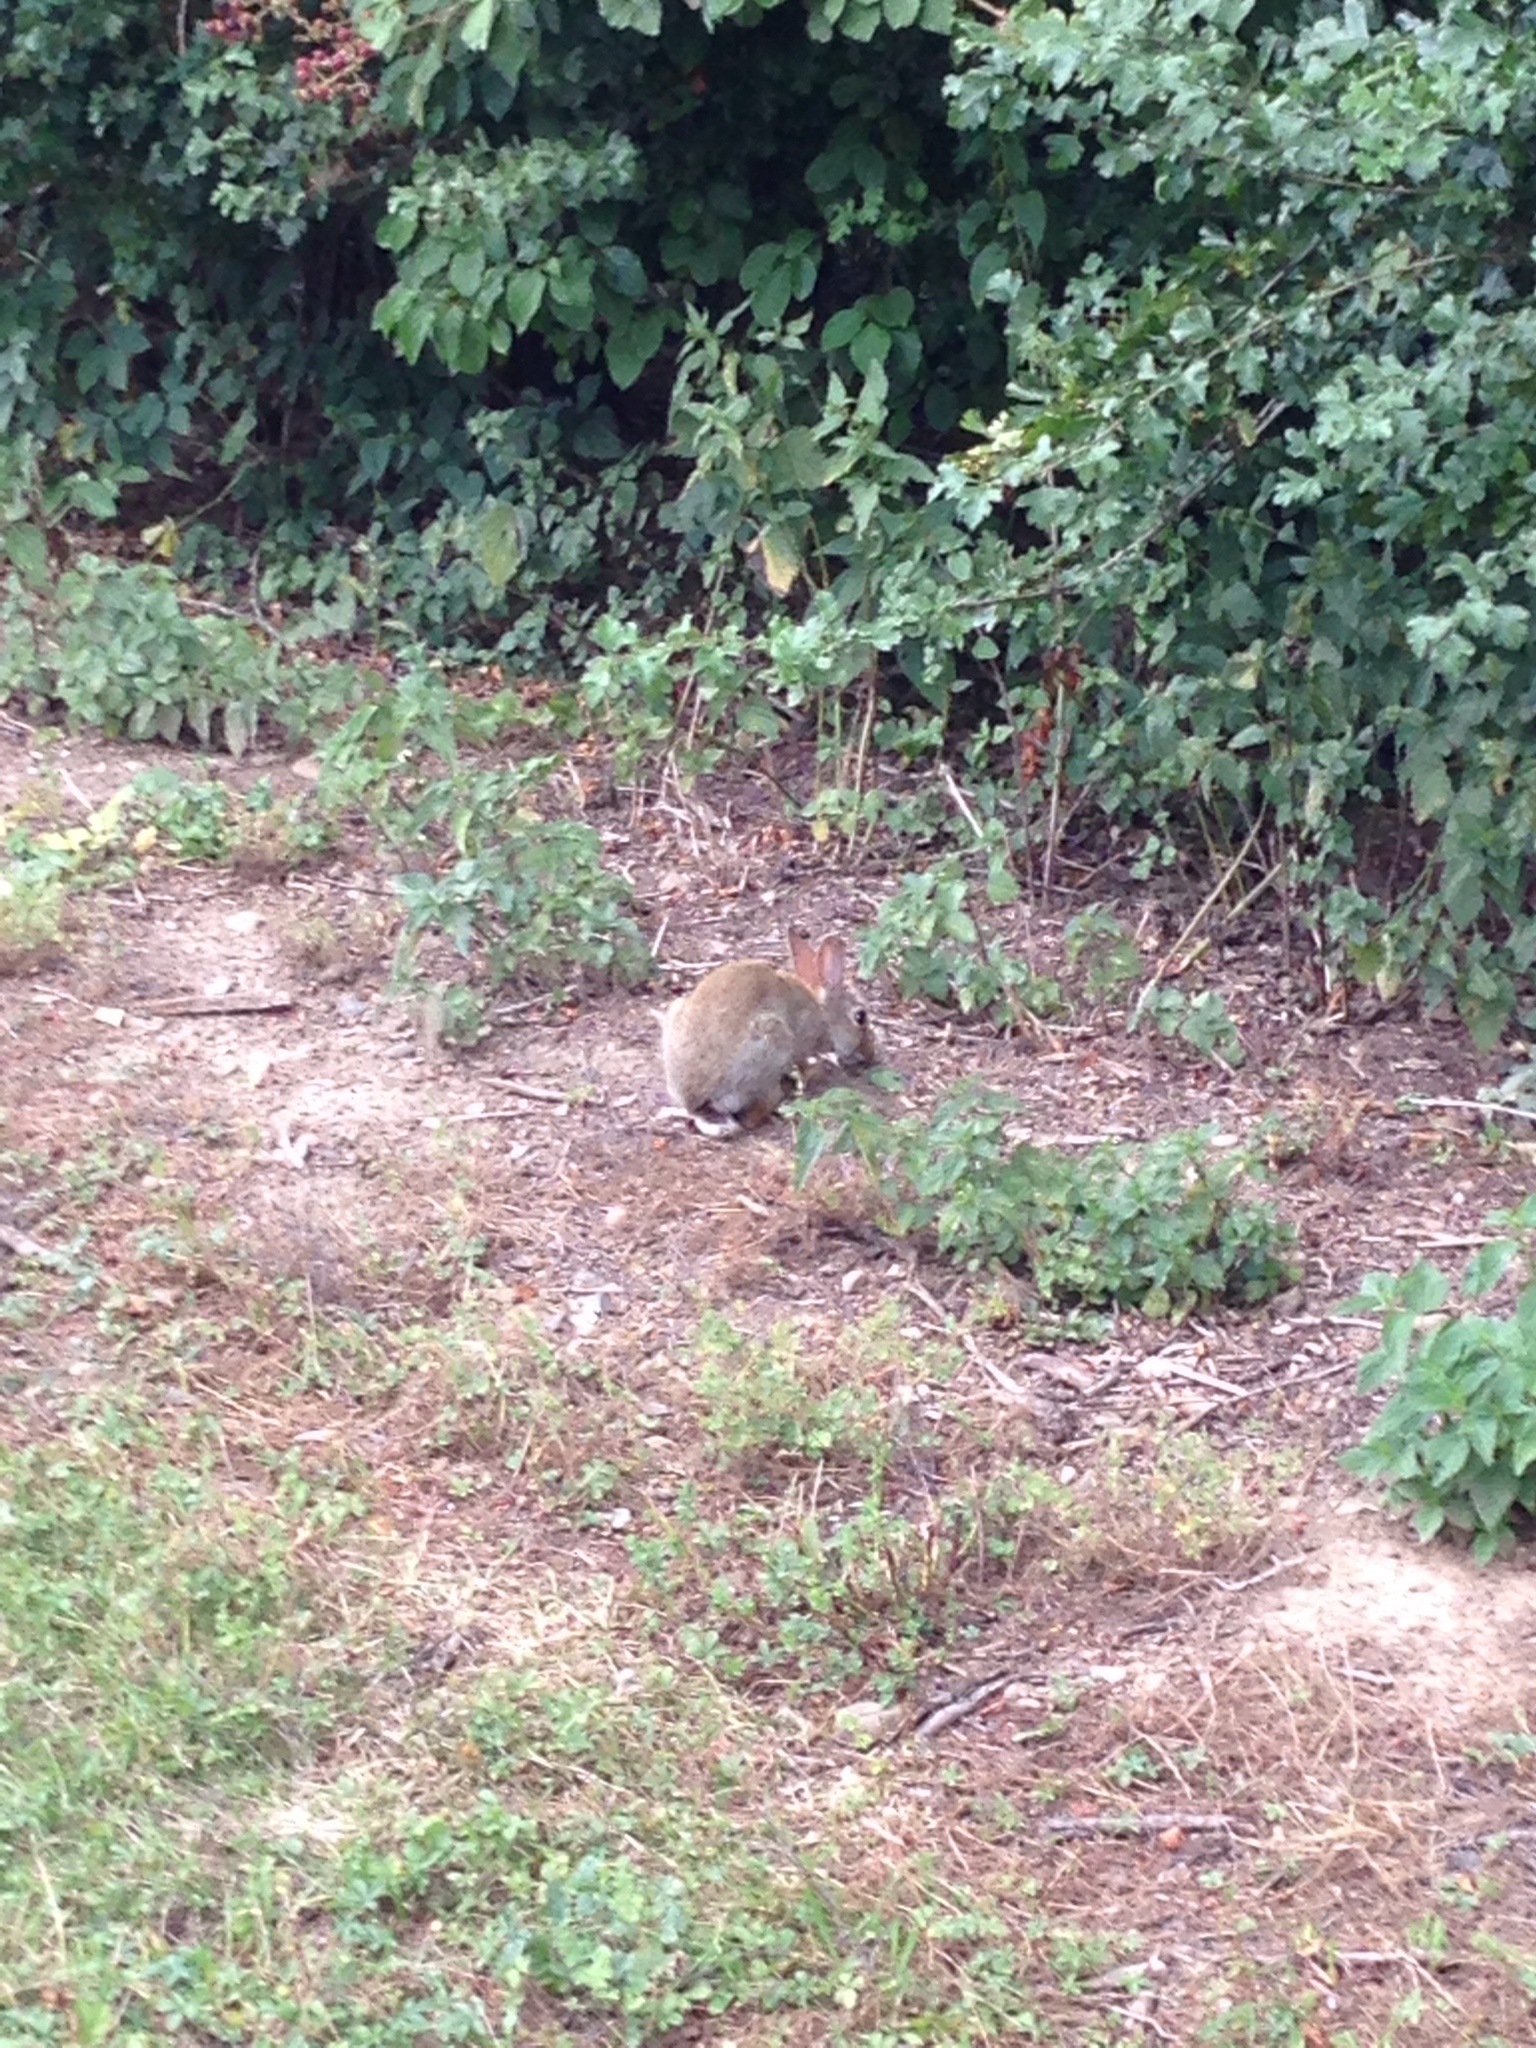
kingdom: Animalia
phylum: Chordata
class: Mammalia
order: Lagomorpha
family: Leporidae
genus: Oryctolagus
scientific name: Oryctolagus cuniculus
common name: European rabbit
